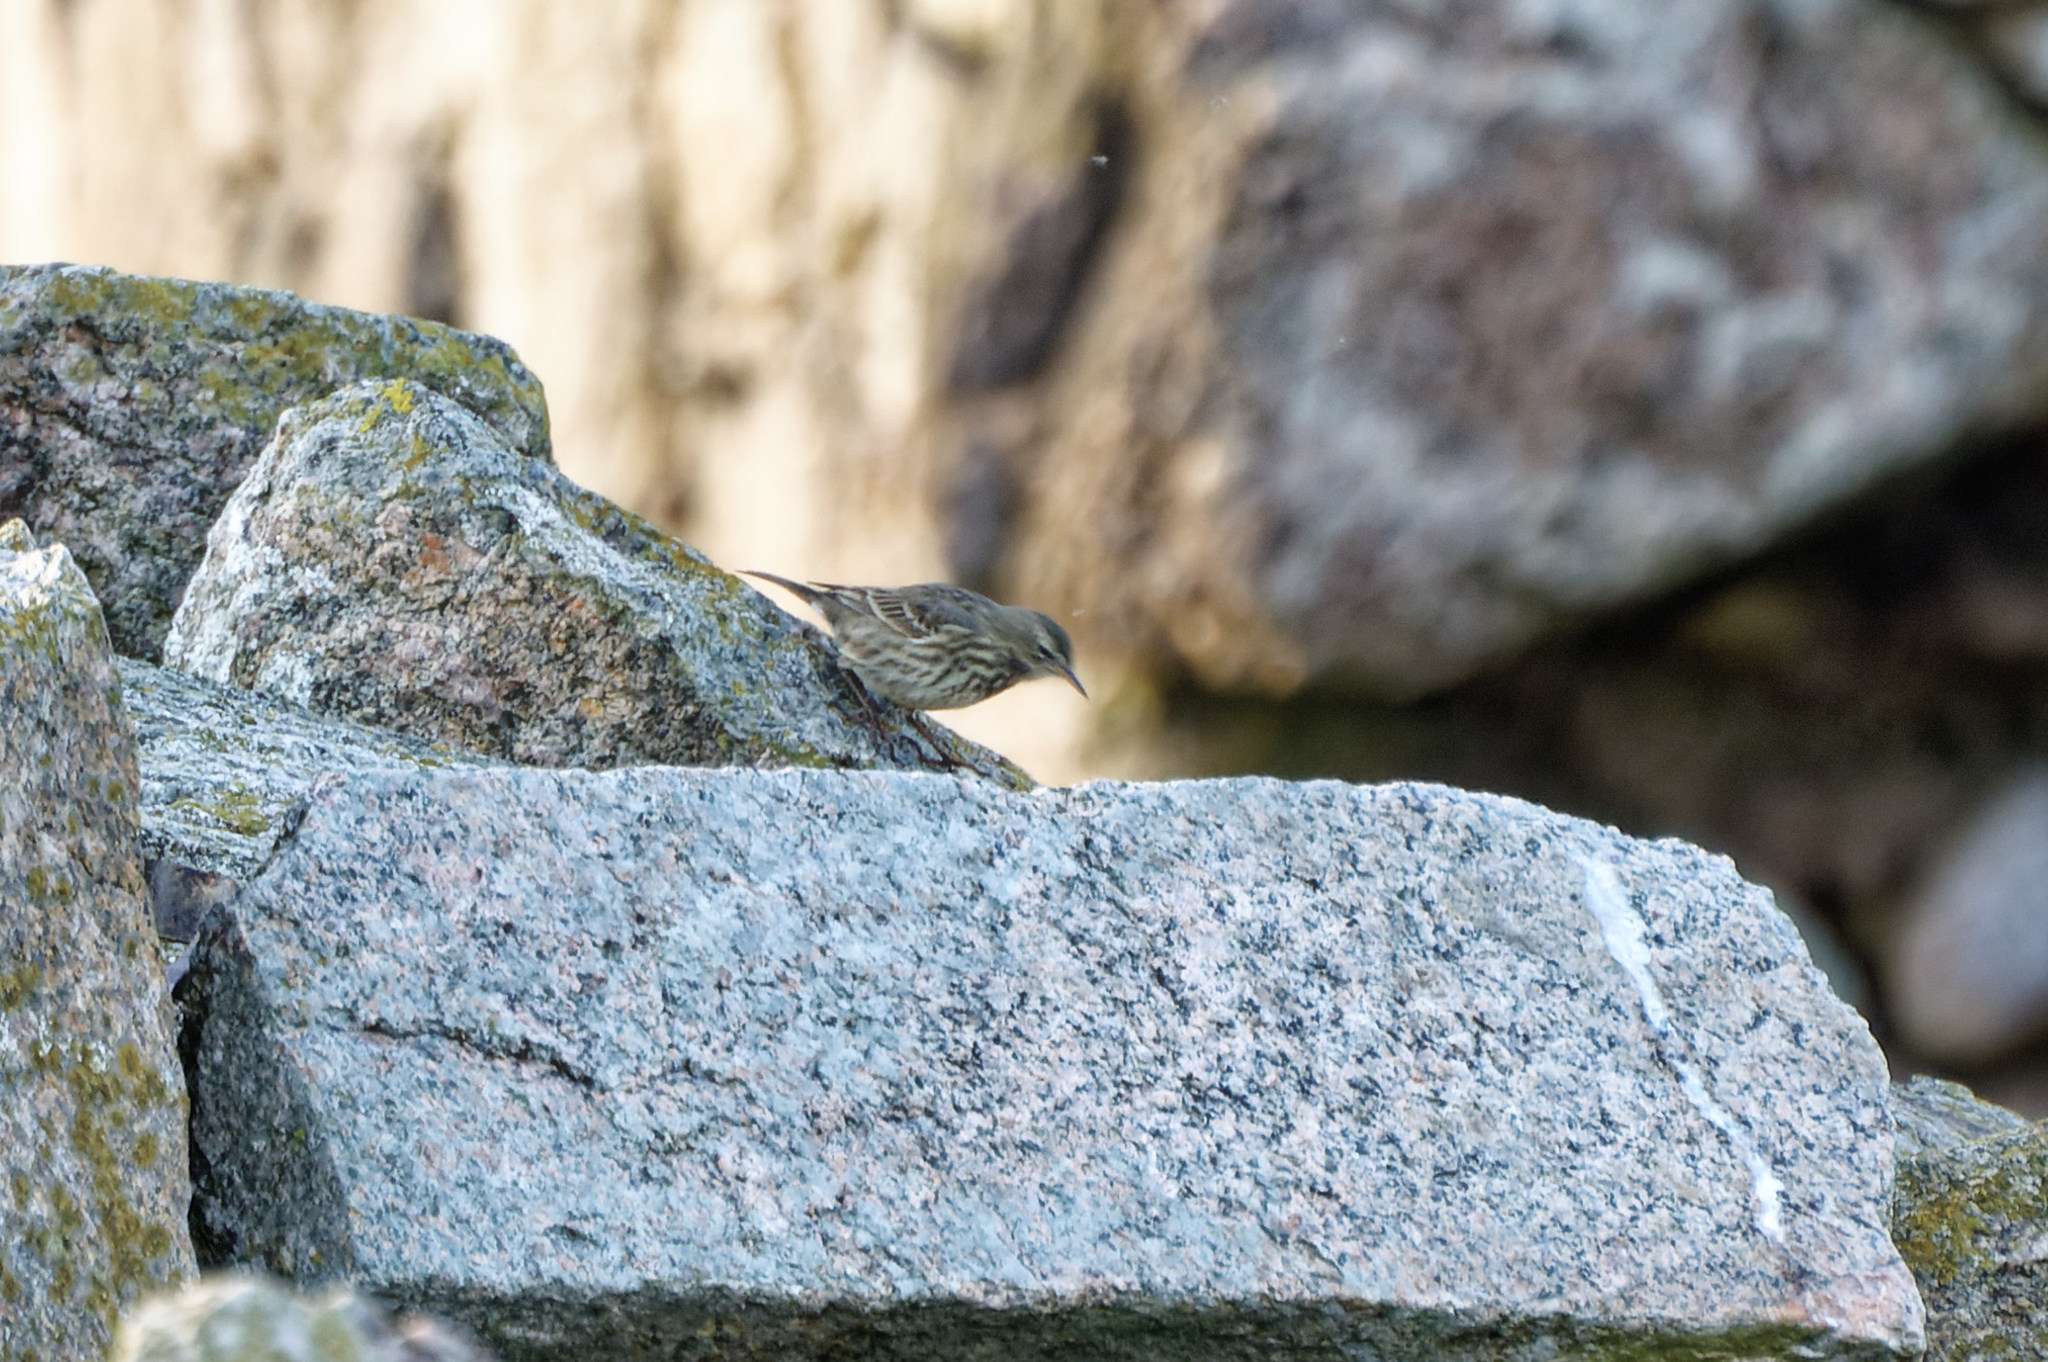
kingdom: Animalia
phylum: Chordata
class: Aves
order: Passeriformes
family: Motacillidae
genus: Anthus
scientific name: Anthus petrosus
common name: Eurasian rock pipit
